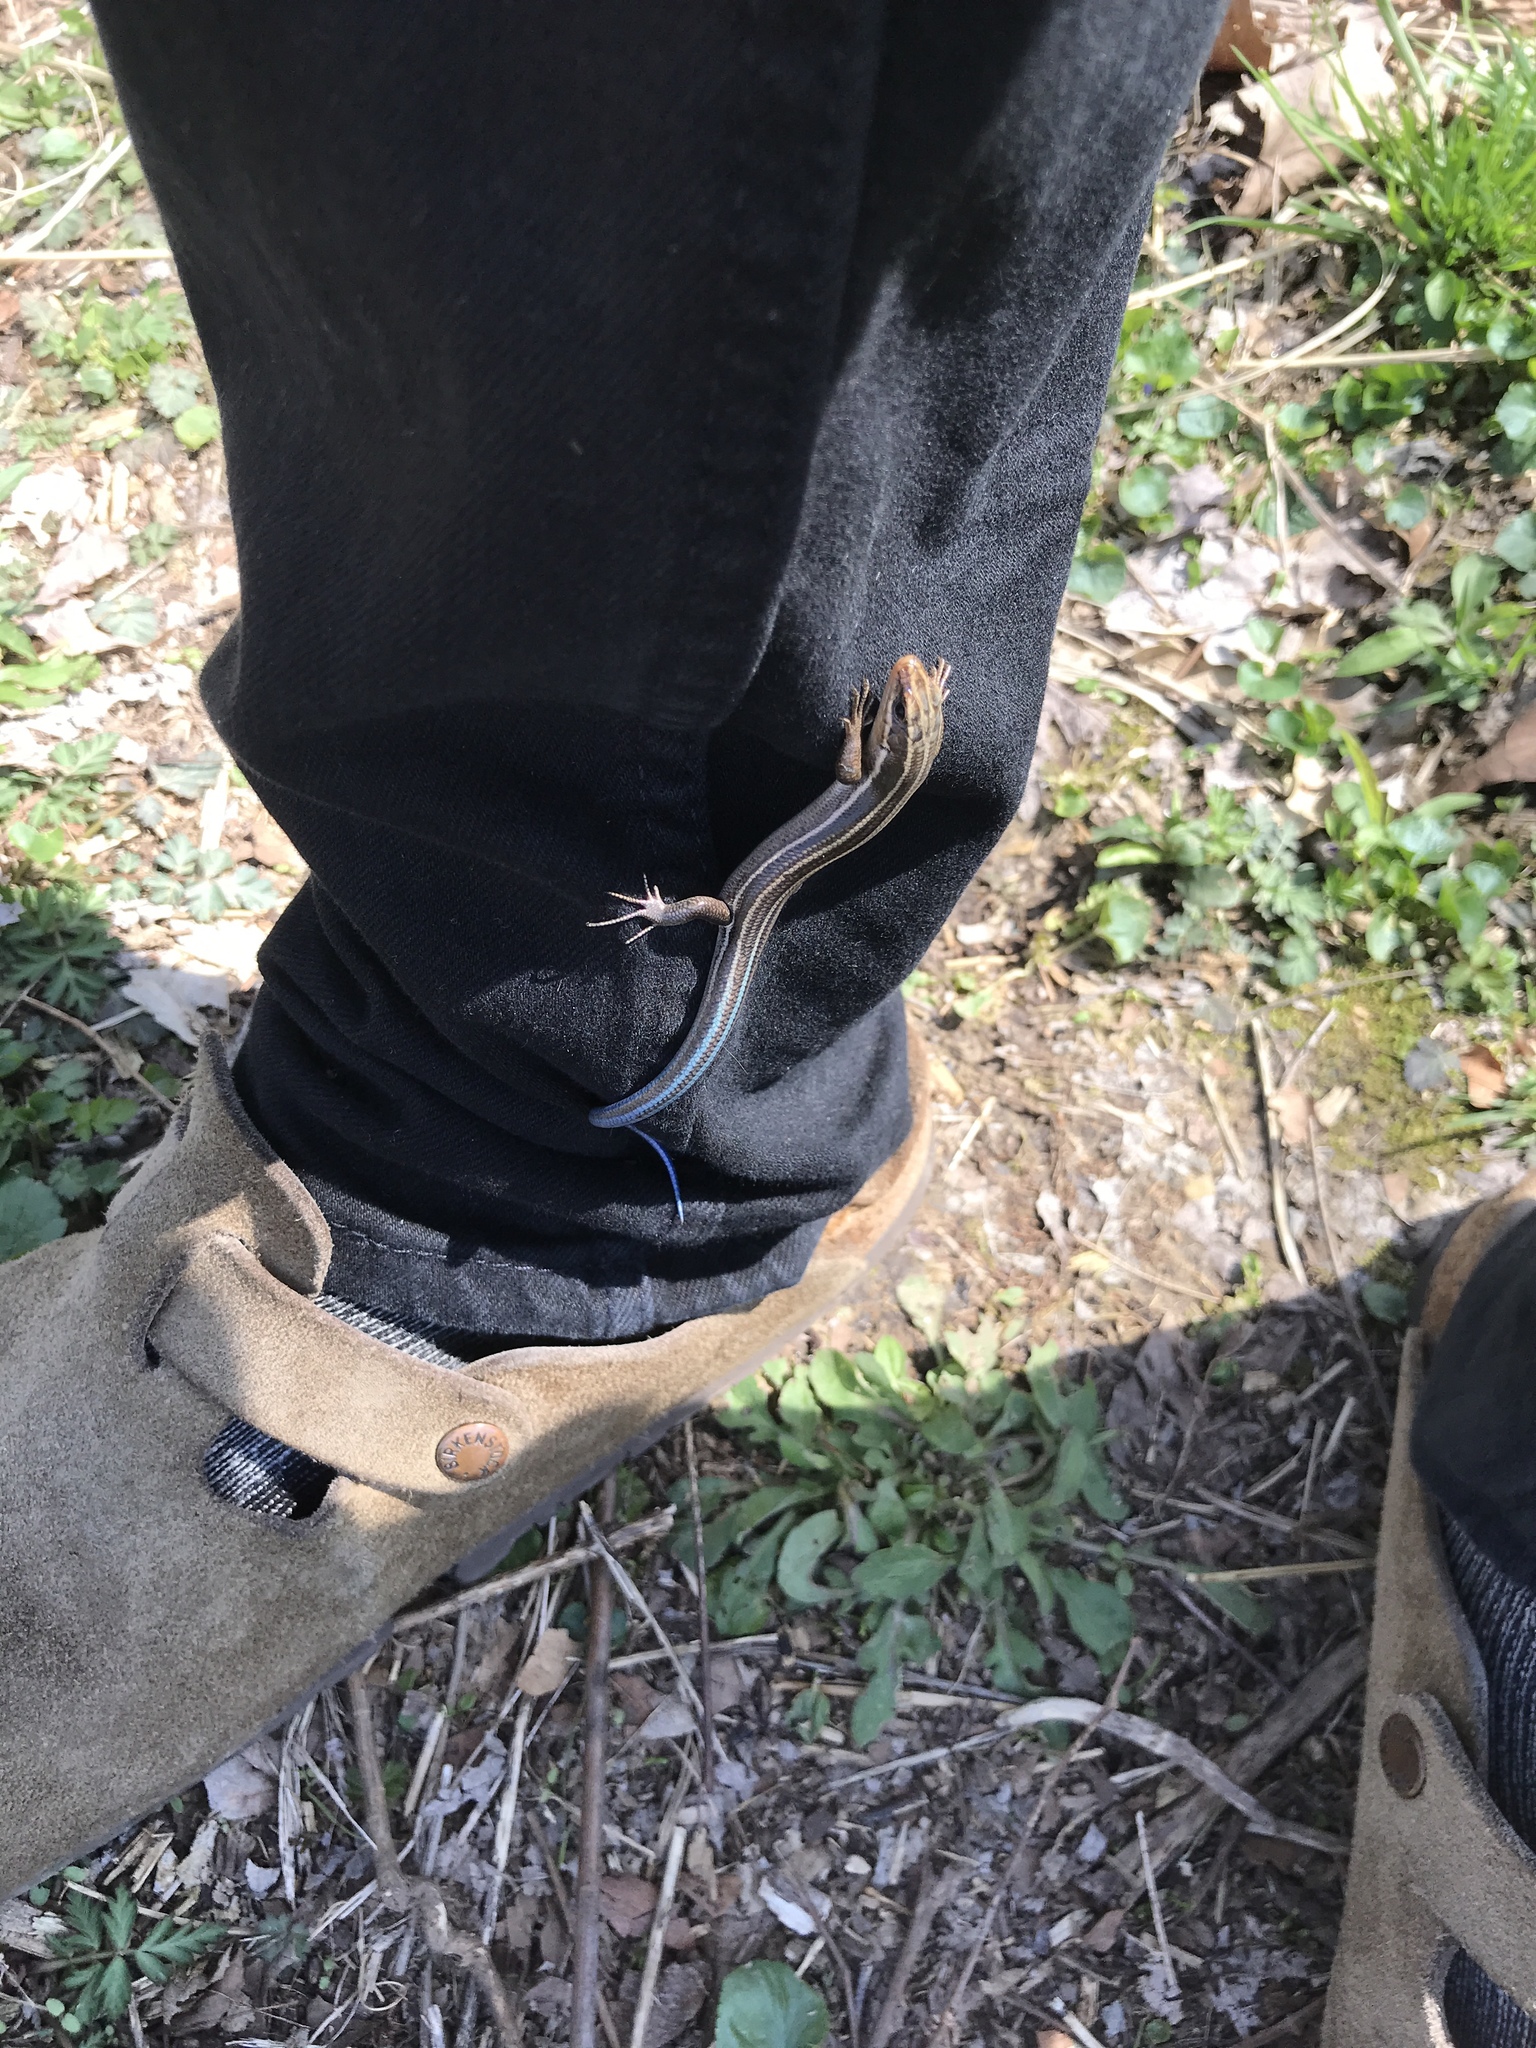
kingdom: Animalia
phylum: Chordata
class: Squamata
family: Scincidae
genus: Plestiodon
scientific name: Plestiodon fasciatus
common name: Five-lined skink
